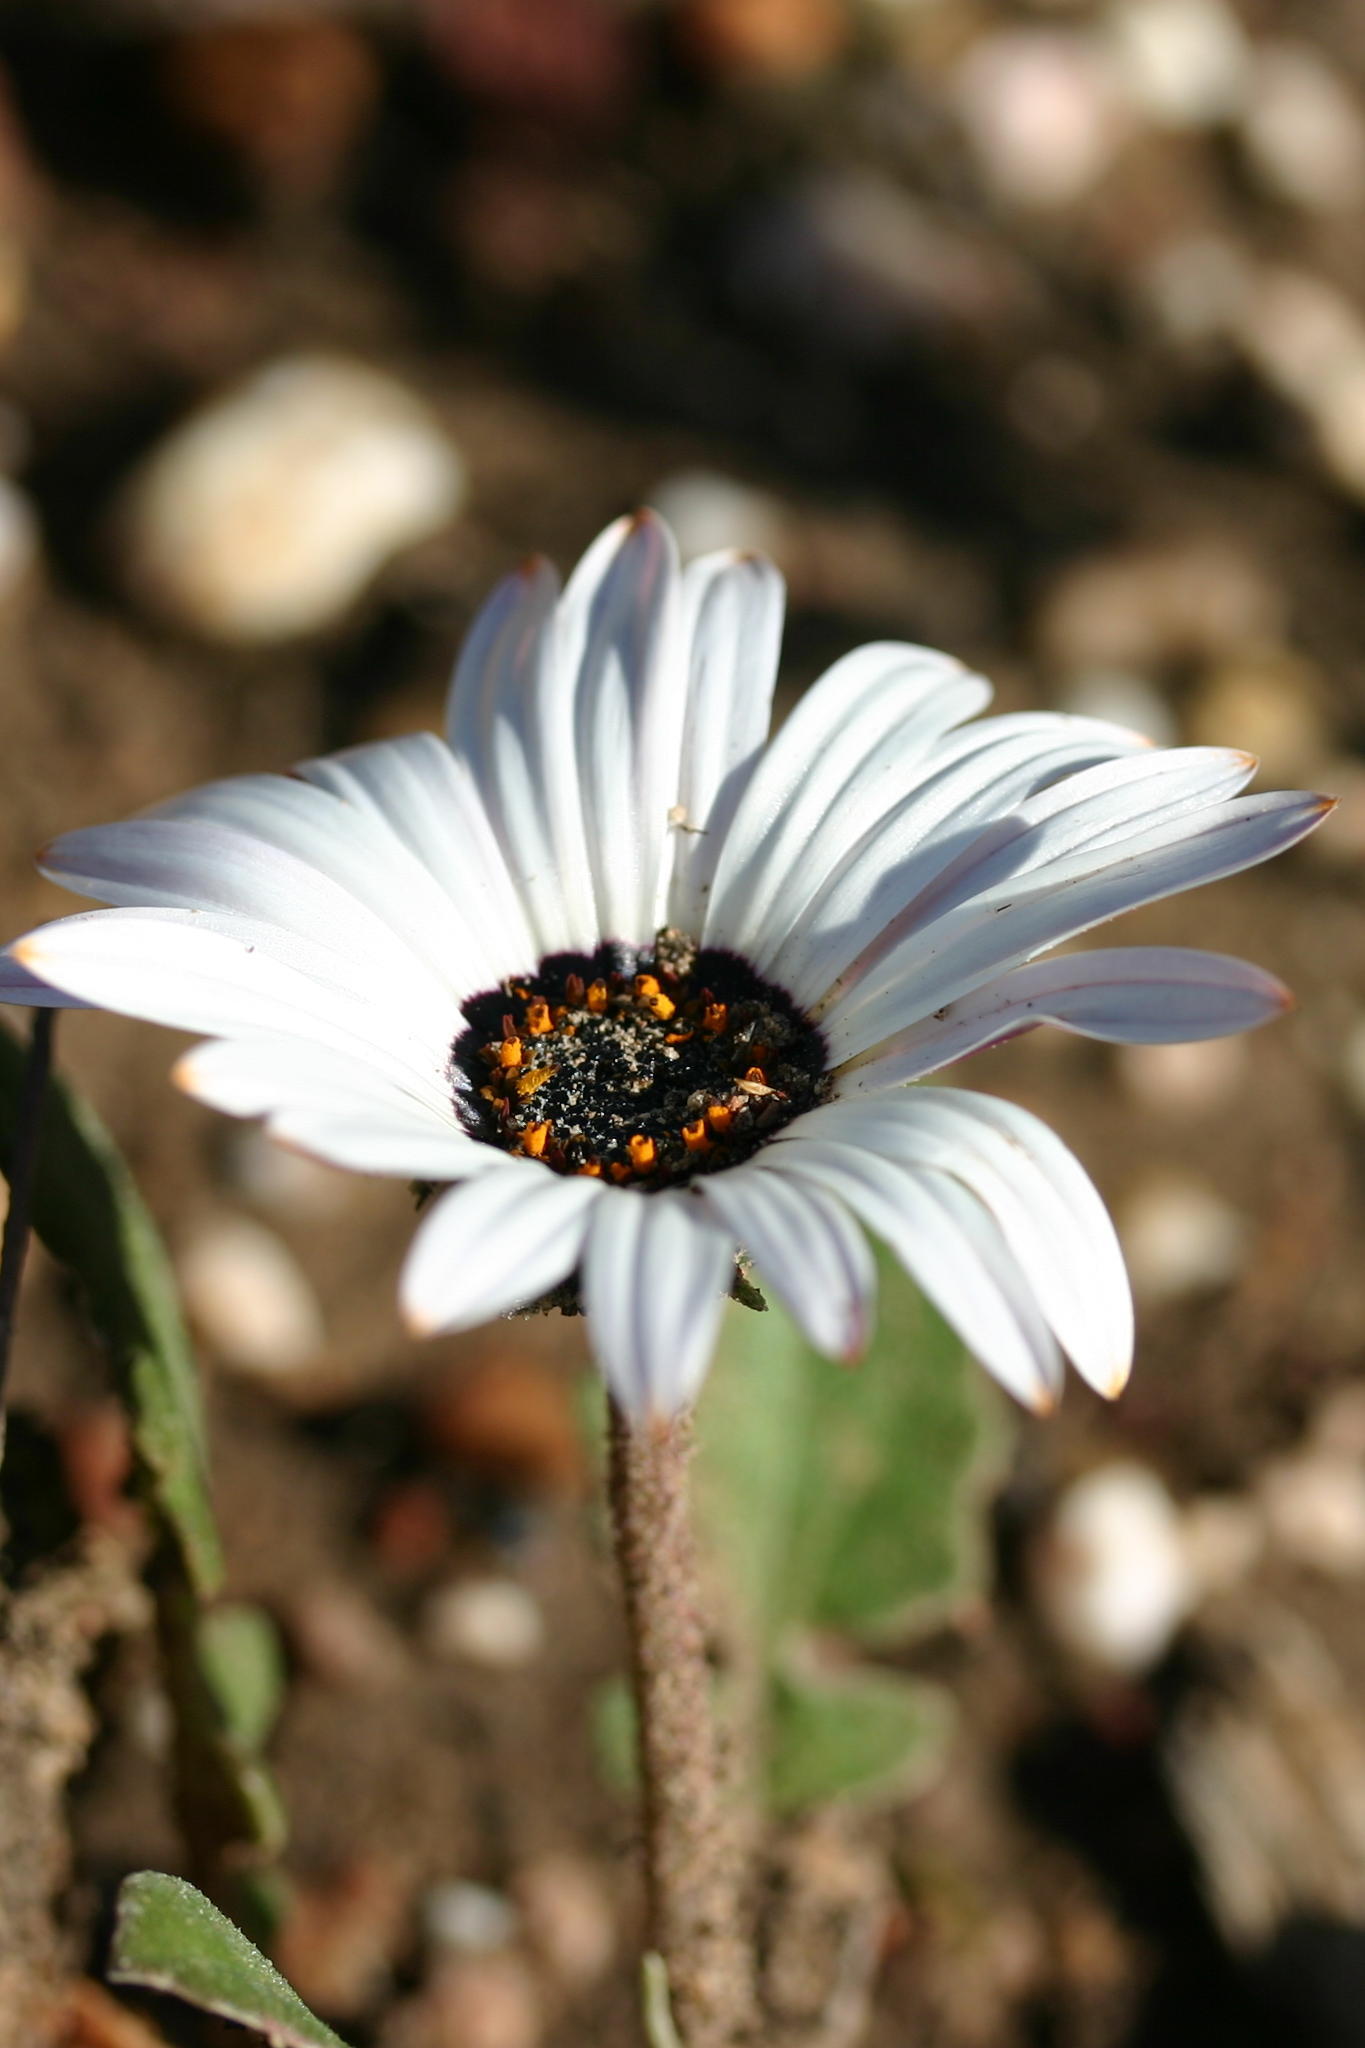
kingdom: Plantae
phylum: Tracheophyta
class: Magnoliopsida
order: Asterales
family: Asteraceae
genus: Arctotis
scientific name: Arctotis acaulis
